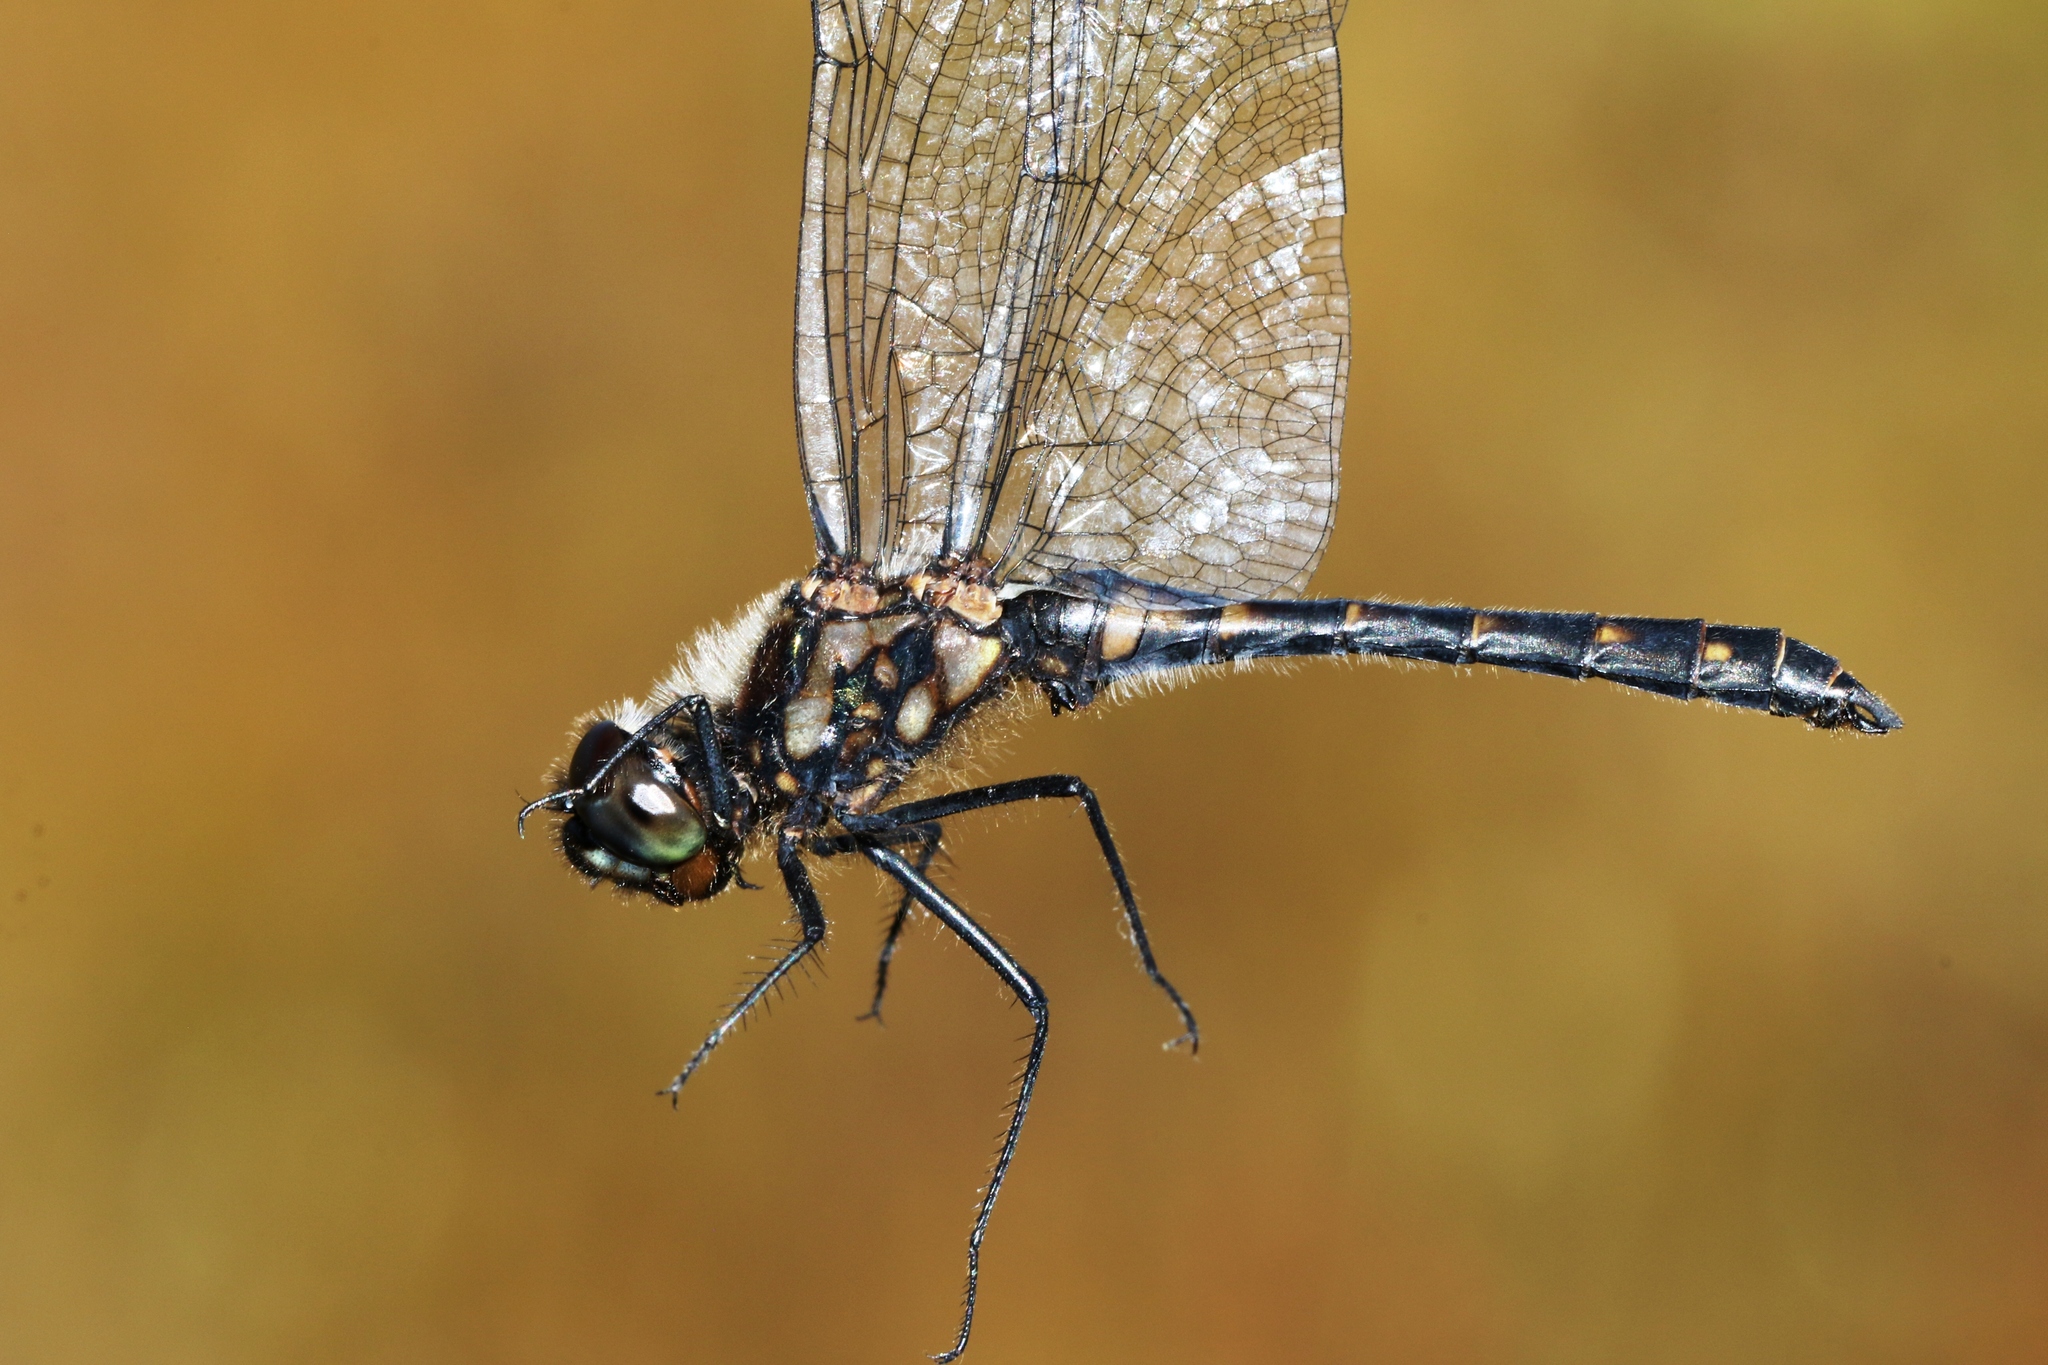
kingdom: Animalia
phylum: Arthropoda
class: Insecta
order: Odonata
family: Libellulidae
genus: Sympetrum
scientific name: Sympetrum danae
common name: Black darter
